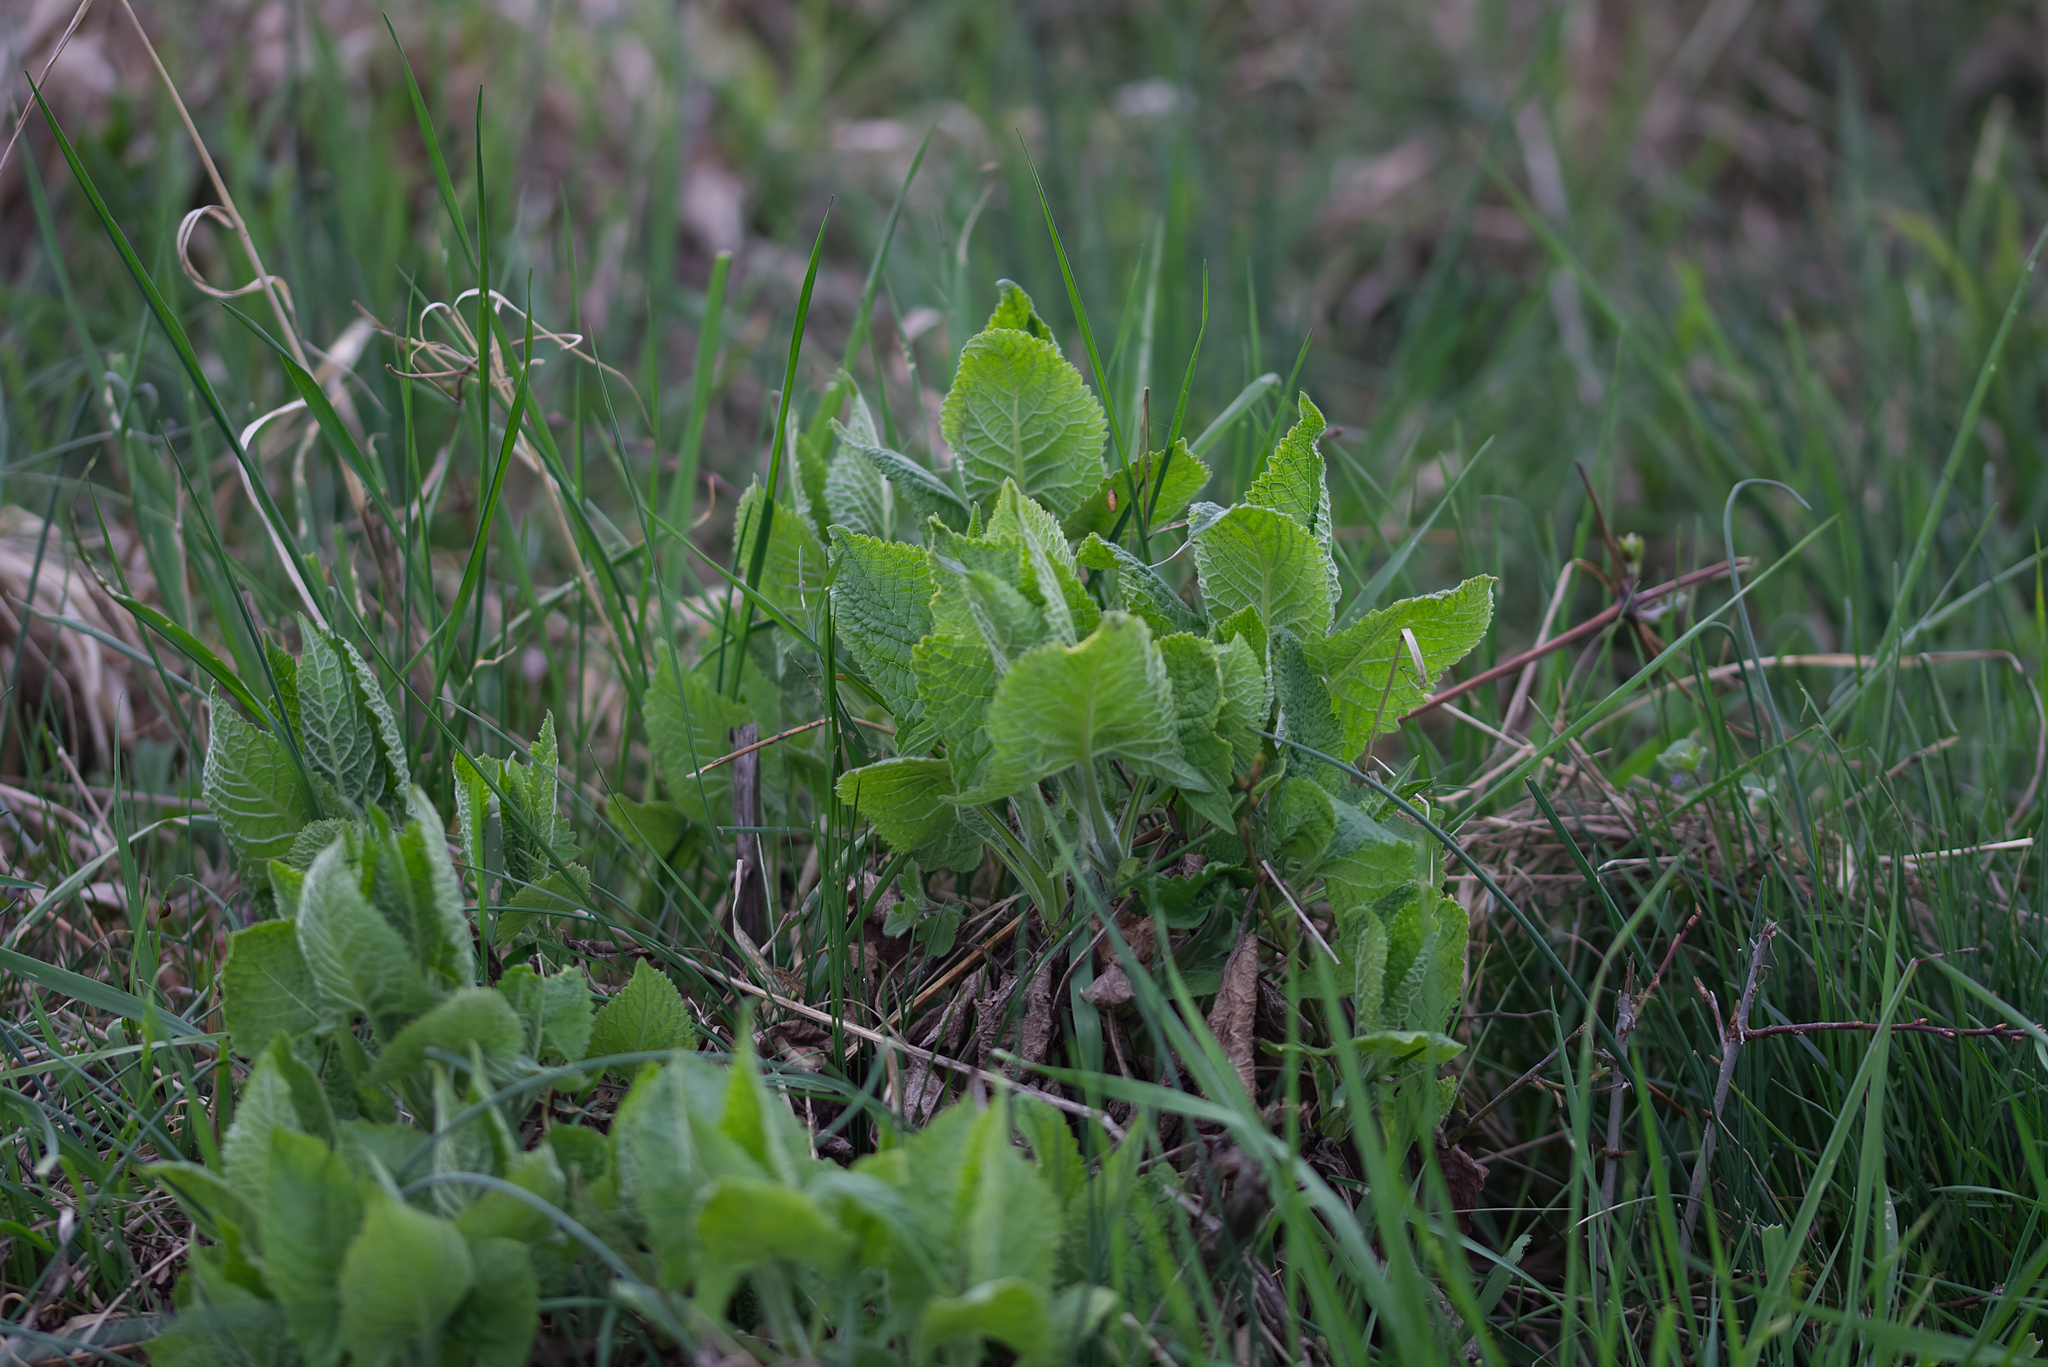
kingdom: Plantae
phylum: Tracheophyta
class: Magnoliopsida
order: Lamiales
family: Lamiaceae
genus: Salvia
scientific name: Salvia glutinosa
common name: Sticky clary
